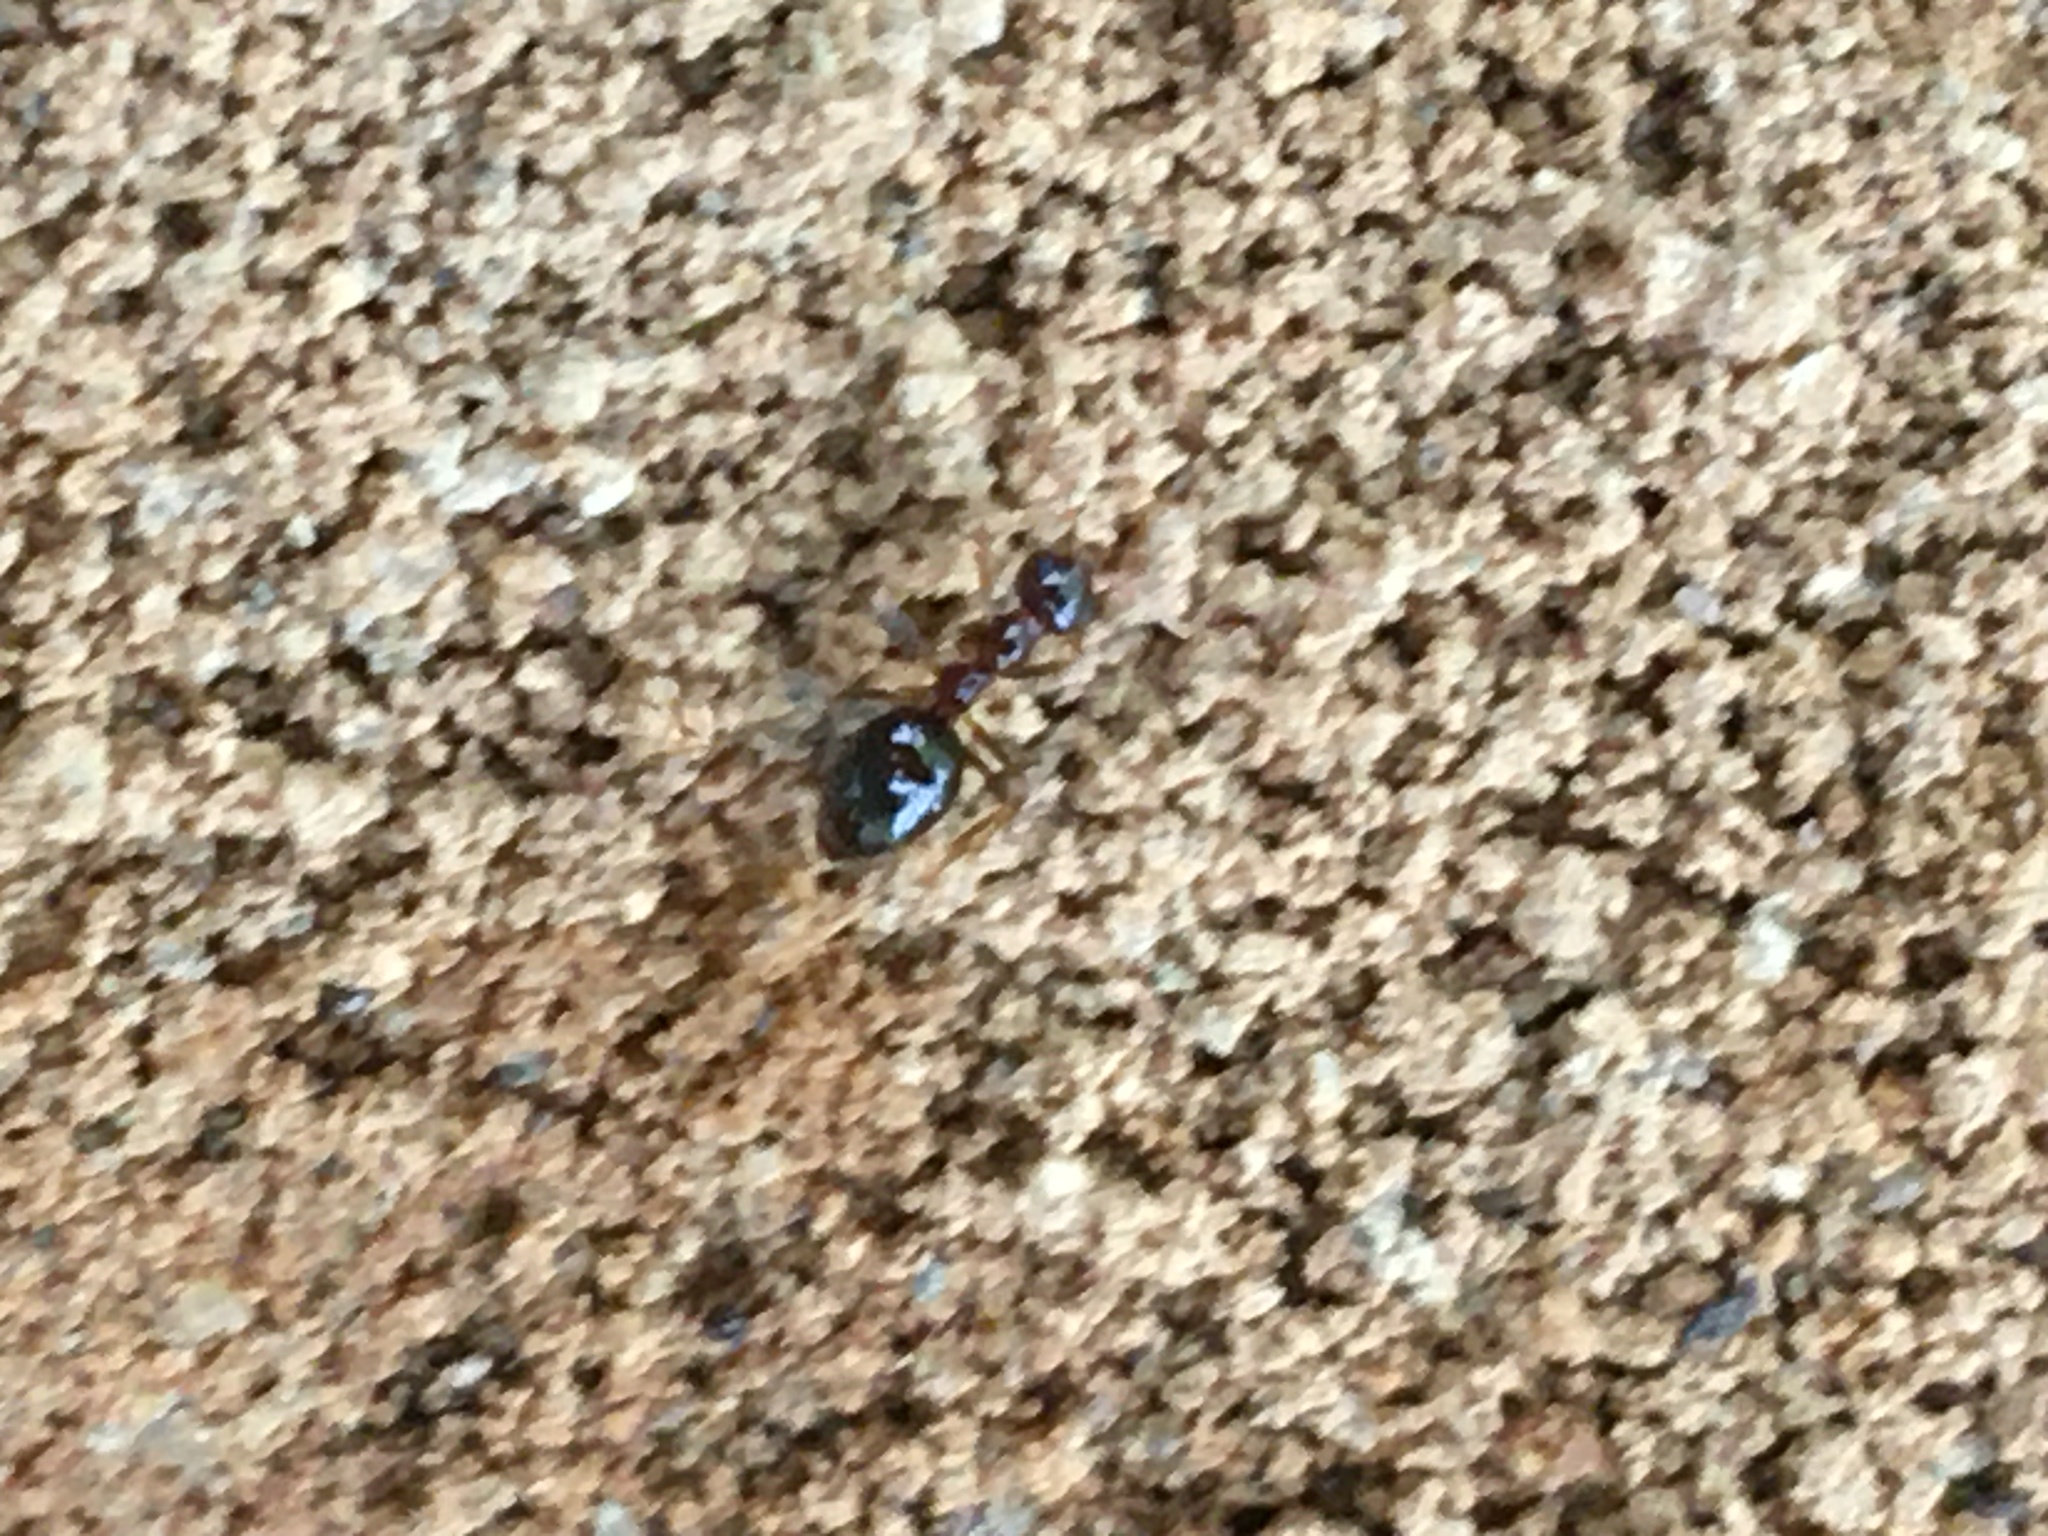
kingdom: Animalia
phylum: Arthropoda
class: Insecta
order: Hymenoptera
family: Formicidae
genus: Prenolepis
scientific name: Prenolepis imparis
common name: Small honey ant
